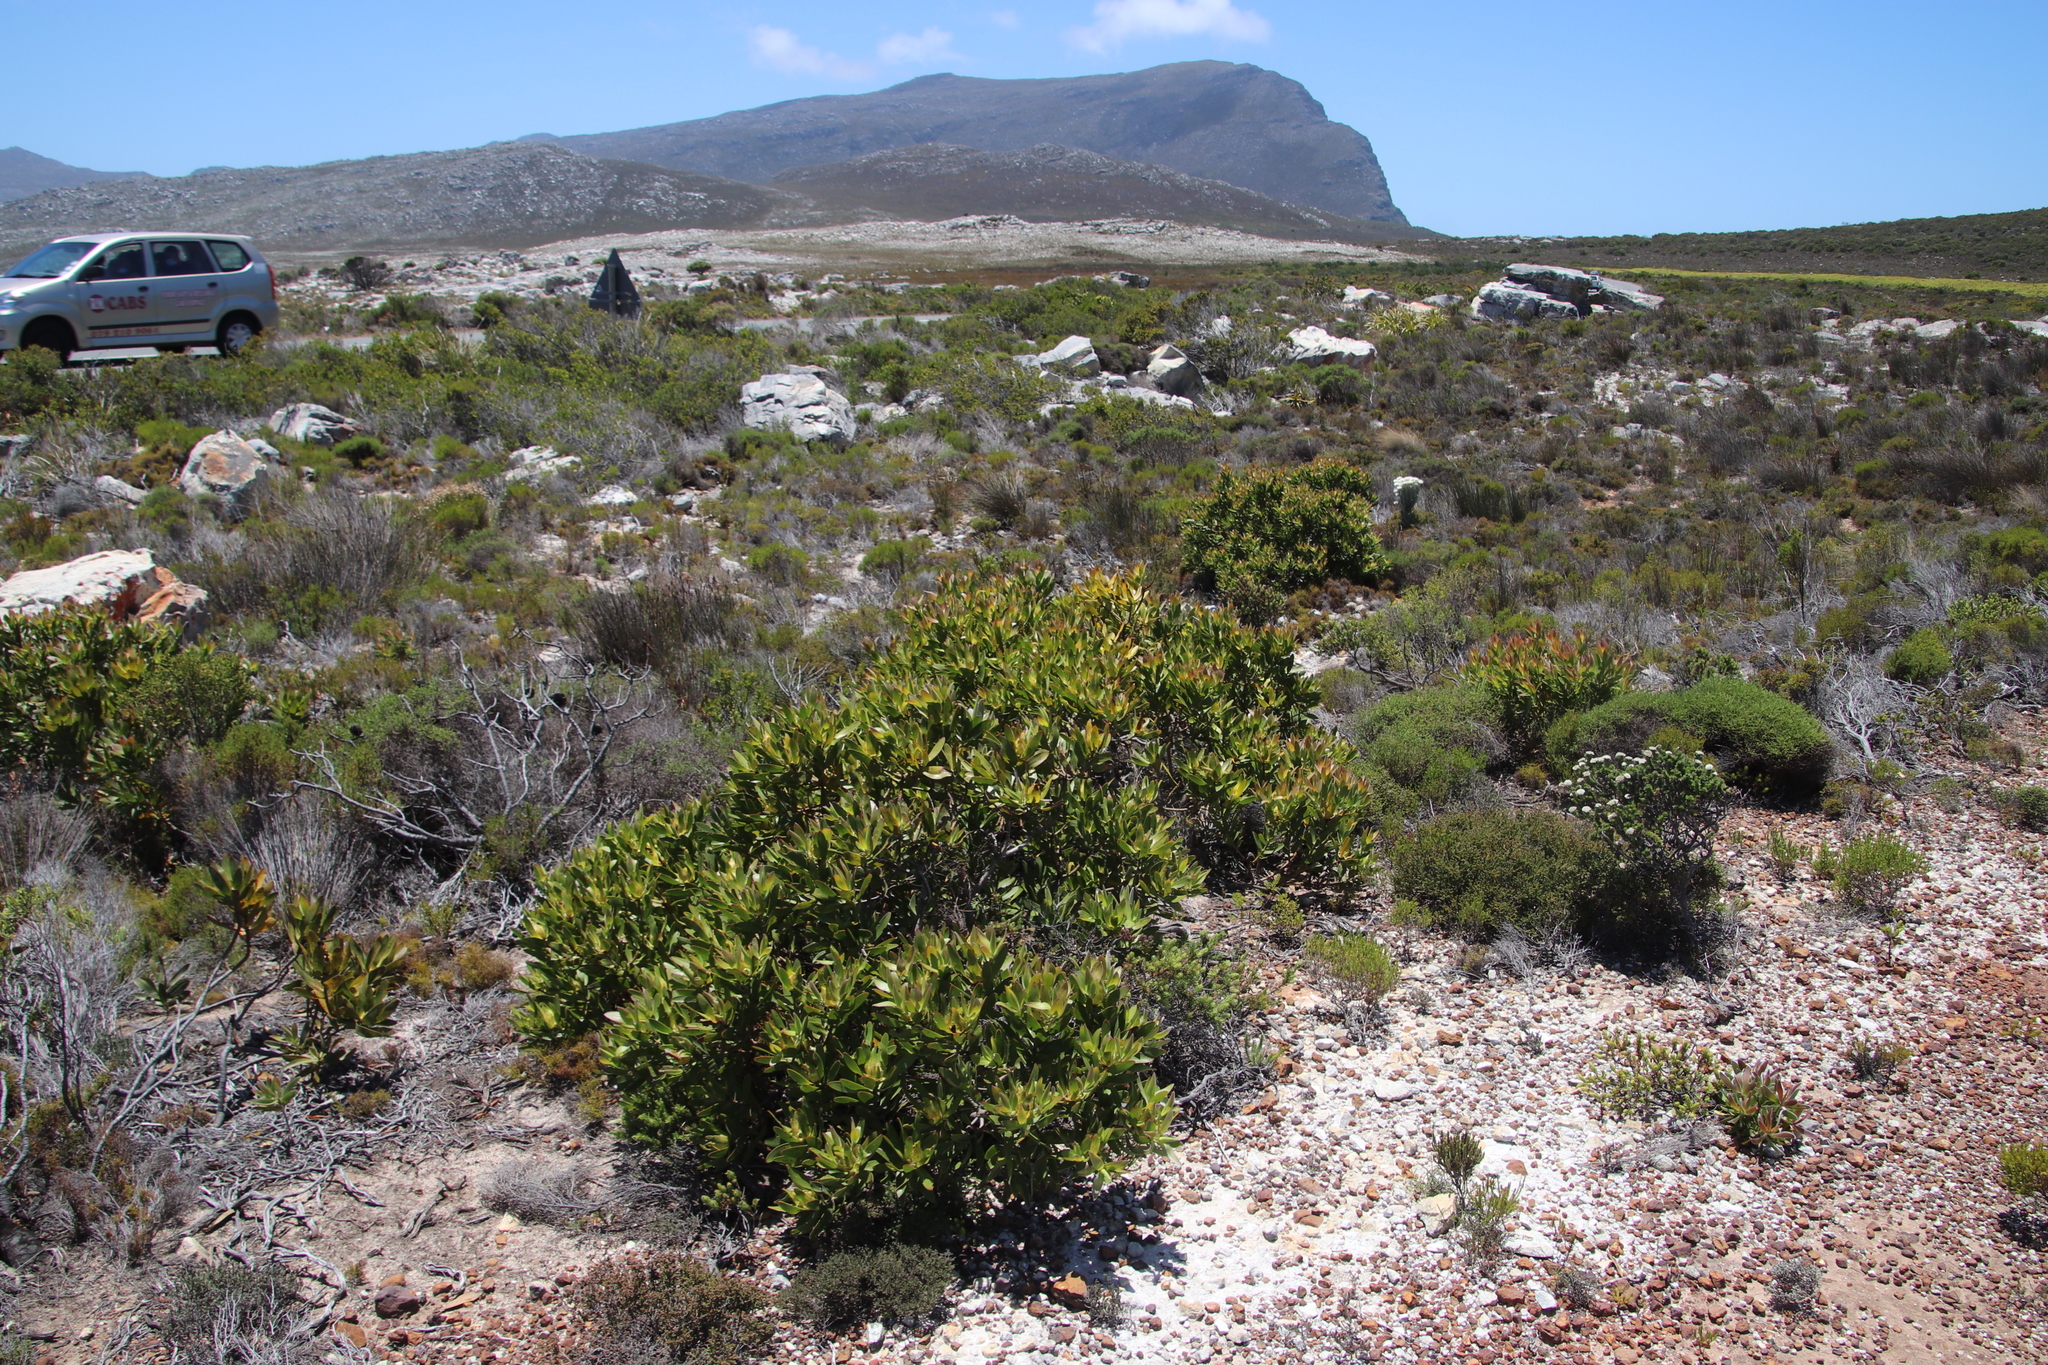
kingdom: Plantae
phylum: Tracheophyta
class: Magnoliopsida
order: Proteales
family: Proteaceae
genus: Leucadendron
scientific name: Leucadendron laureolum
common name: Golden sunshinebush
